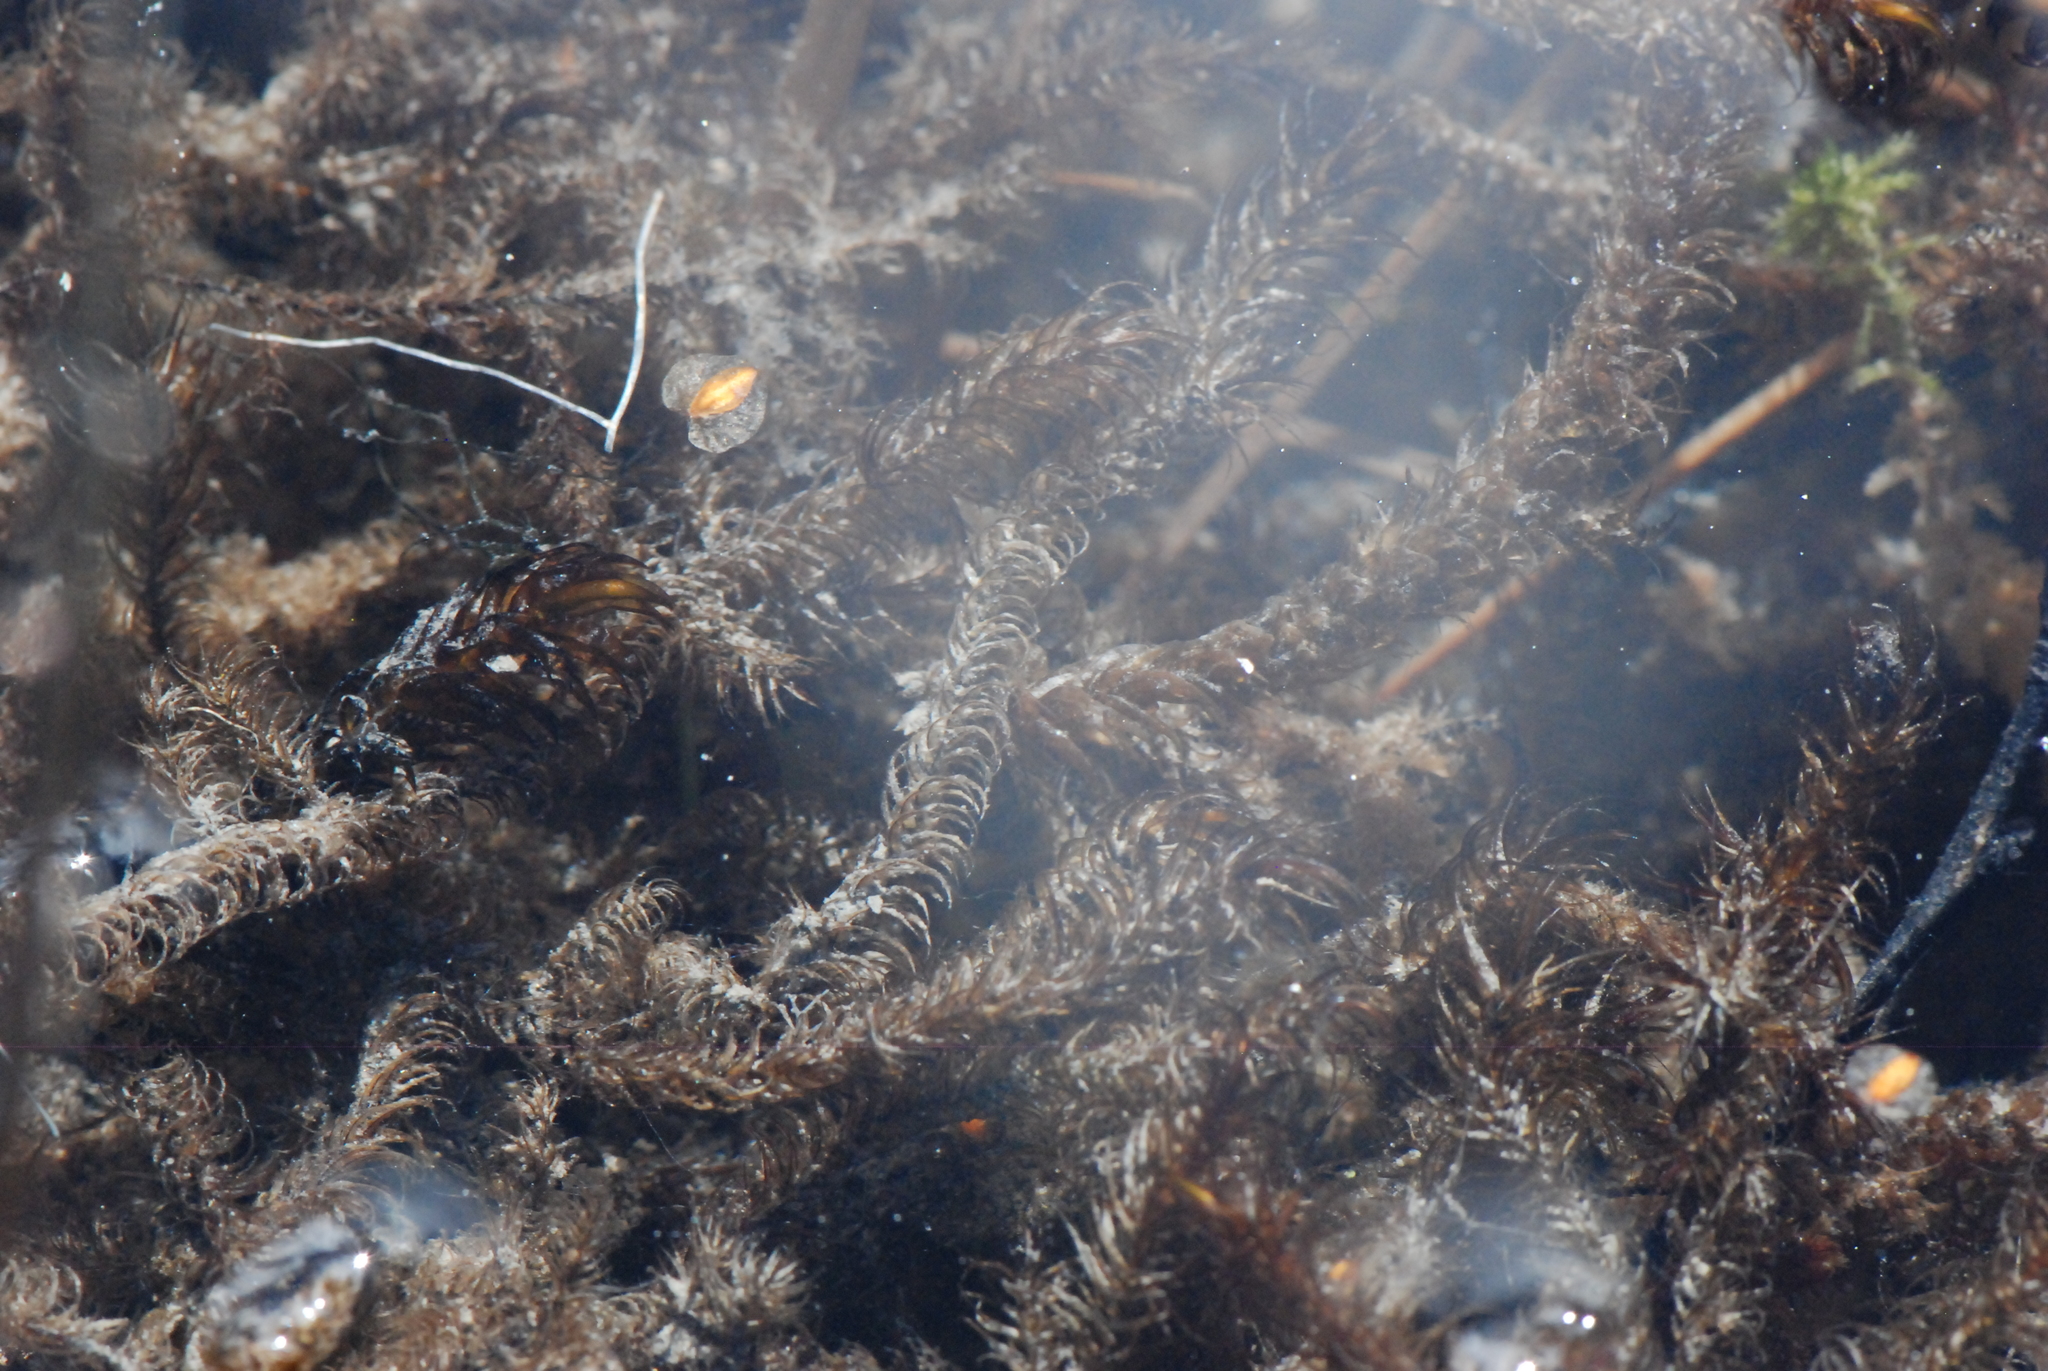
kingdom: Plantae
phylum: Bryophyta
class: Bryopsida
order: Hypnales
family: Amblystegiaceae
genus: Drepanocladus
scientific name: Drepanocladus longifolius
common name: Long-leaved hook moss
